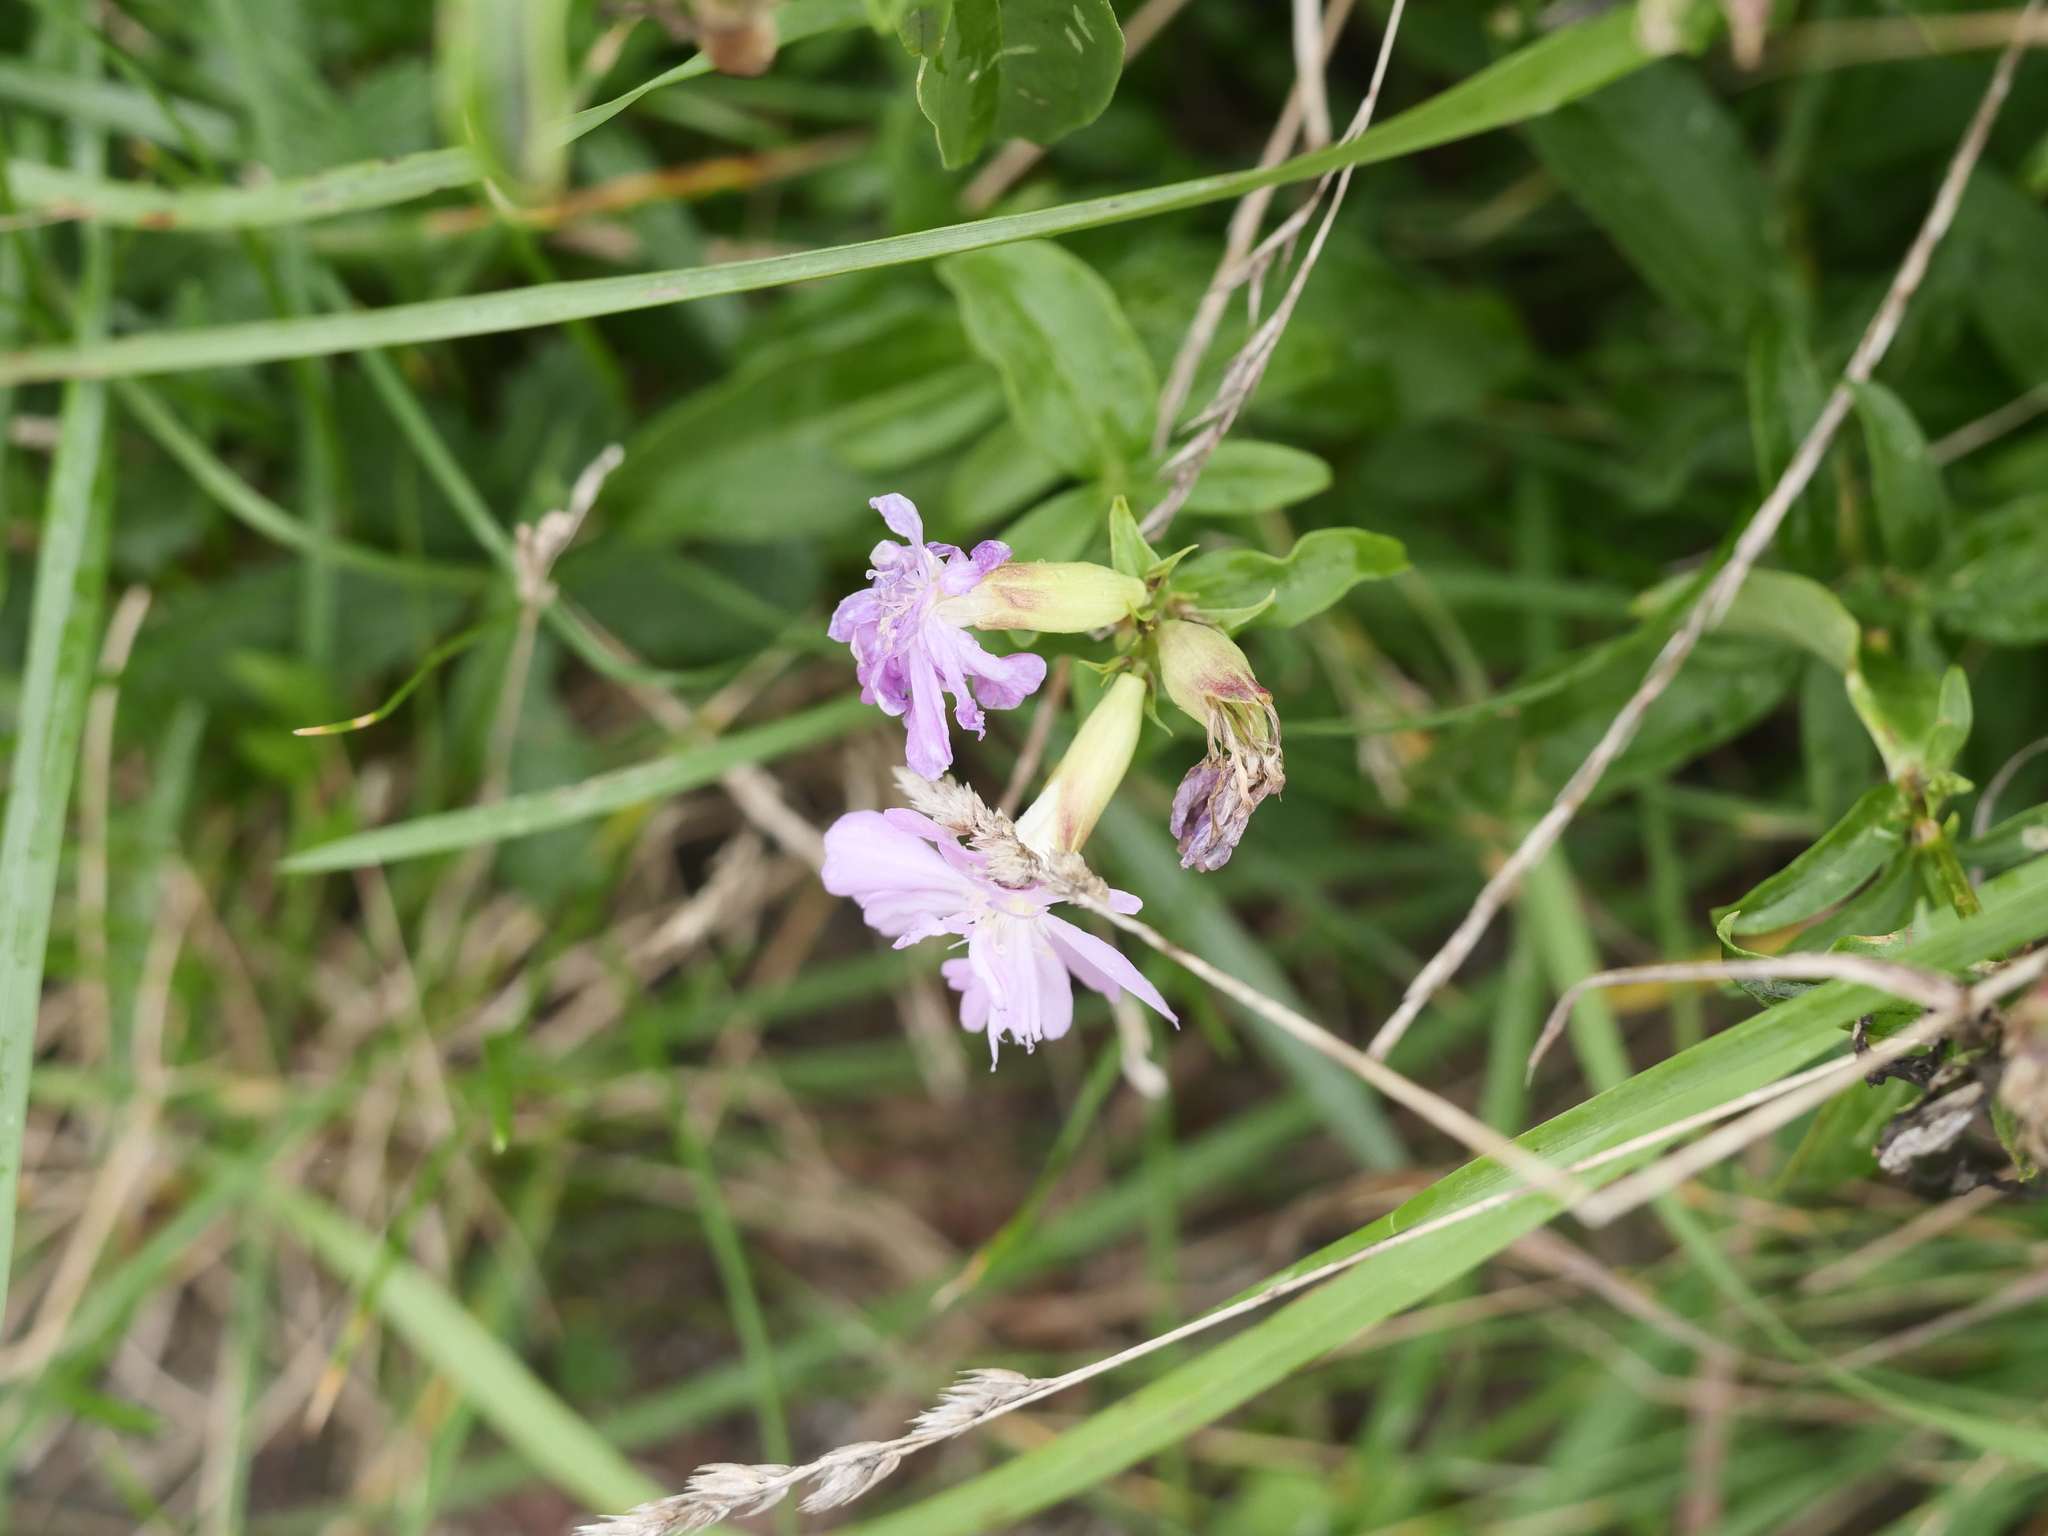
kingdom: Plantae
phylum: Tracheophyta
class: Magnoliopsida
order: Caryophyllales
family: Caryophyllaceae
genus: Saponaria
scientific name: Saponaria officinalis
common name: Soapwort
